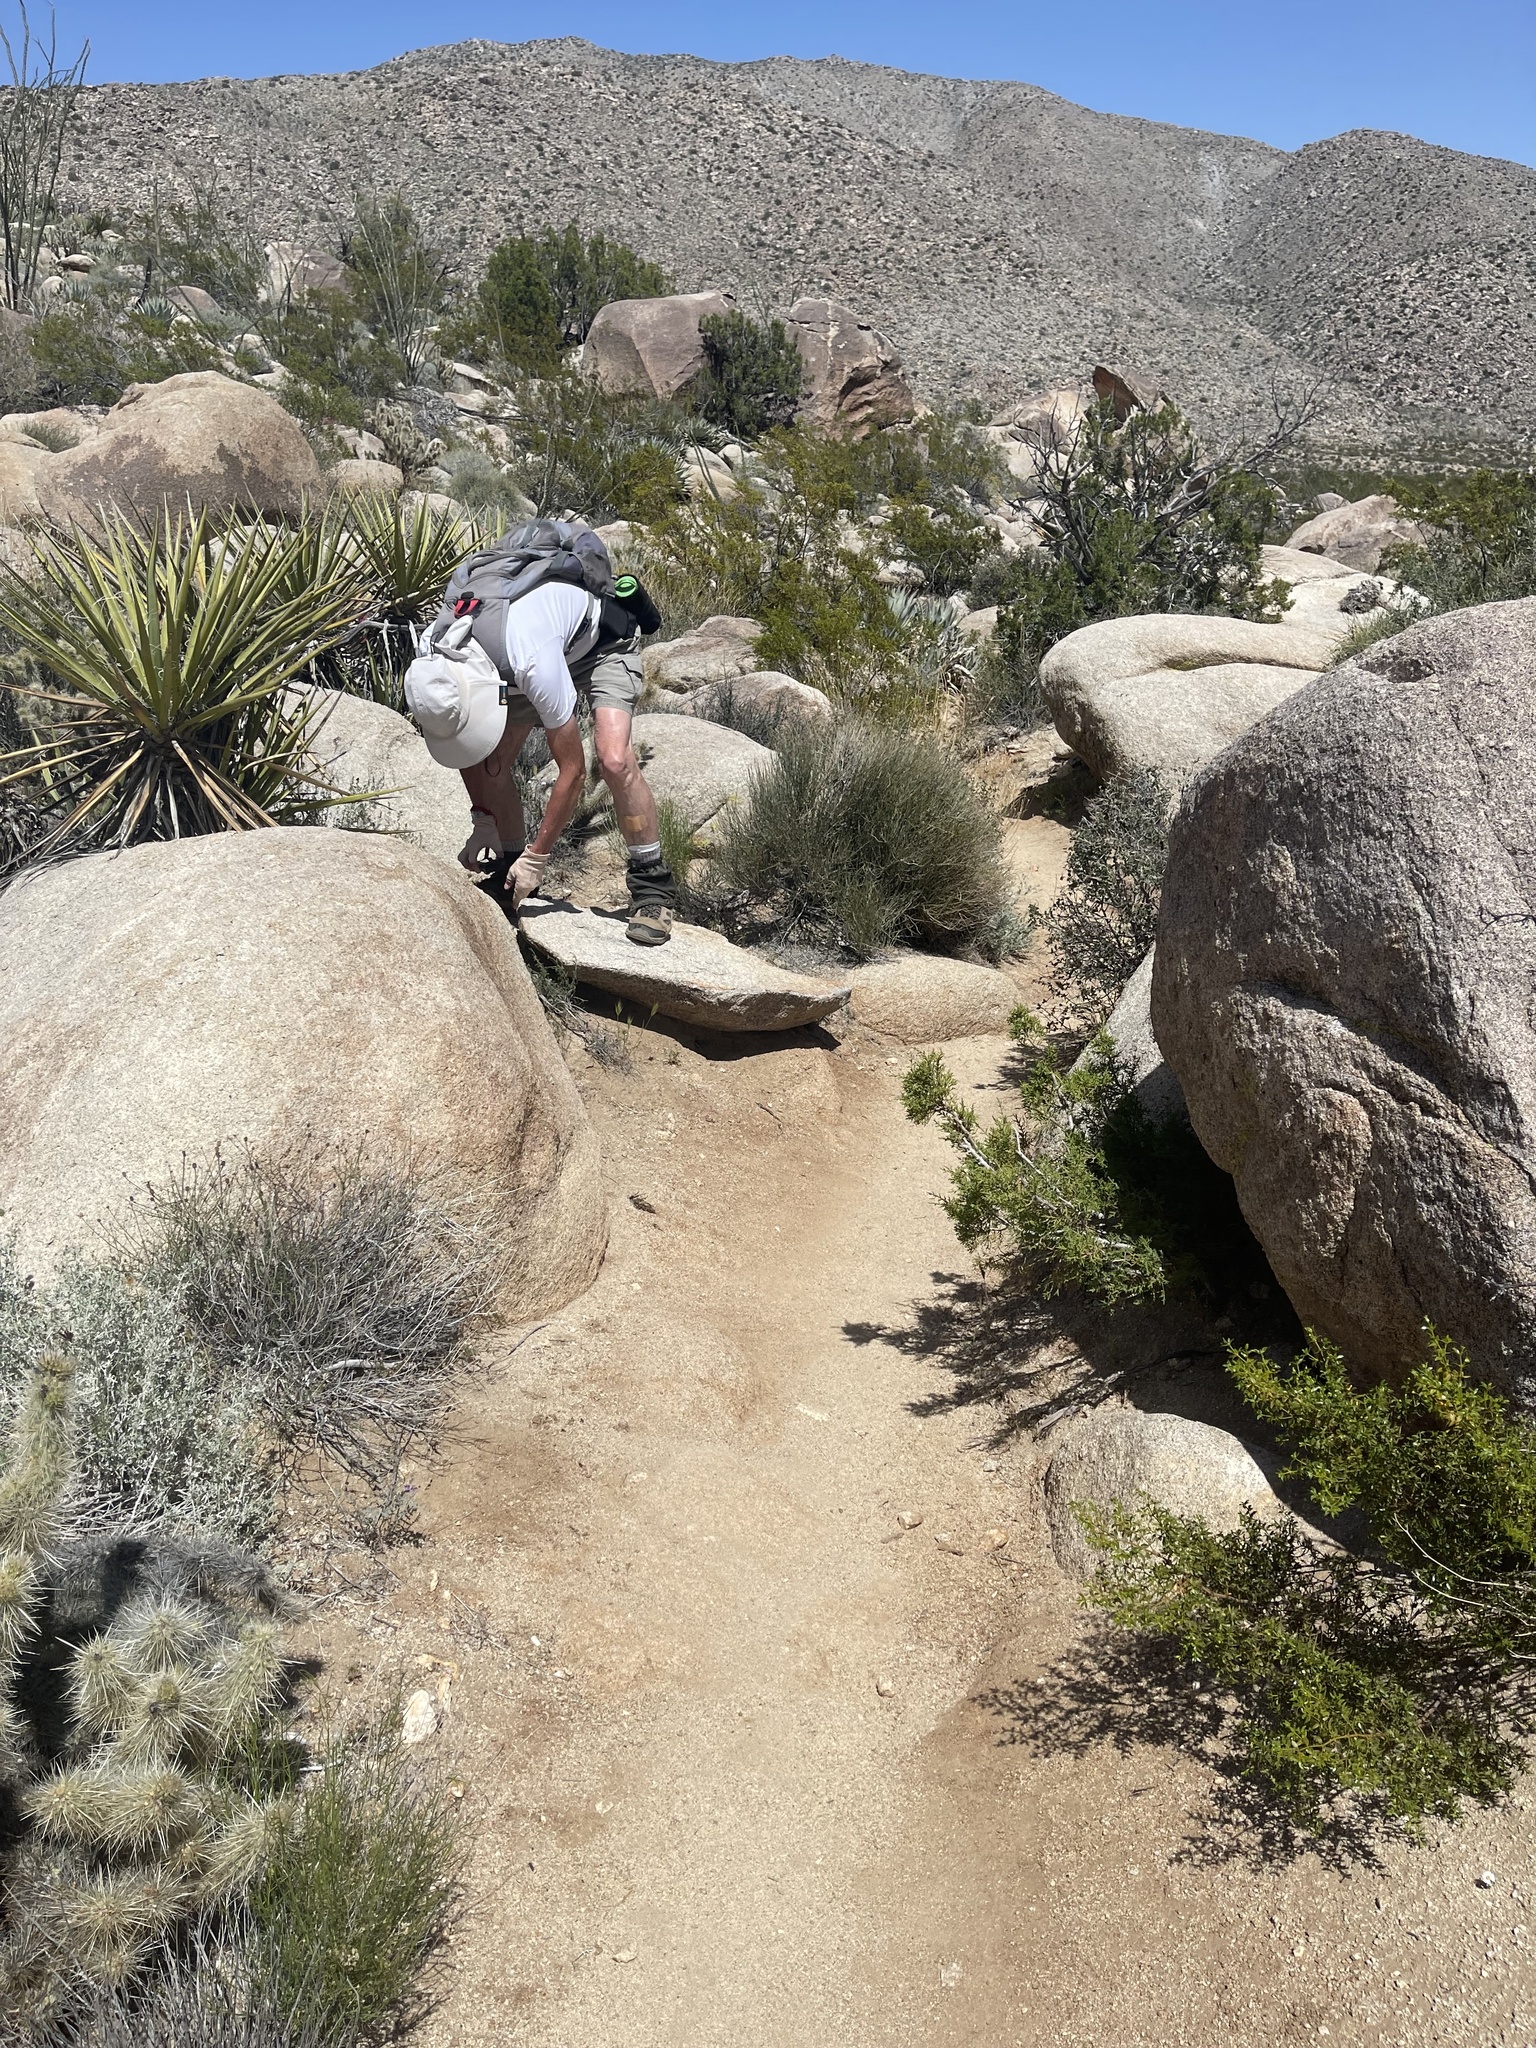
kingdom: Plantae
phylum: Tracheophyta
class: Magnoliopsida
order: Gentianales
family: Apocynaceae
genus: Matelea
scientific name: Matelea parvifolia
